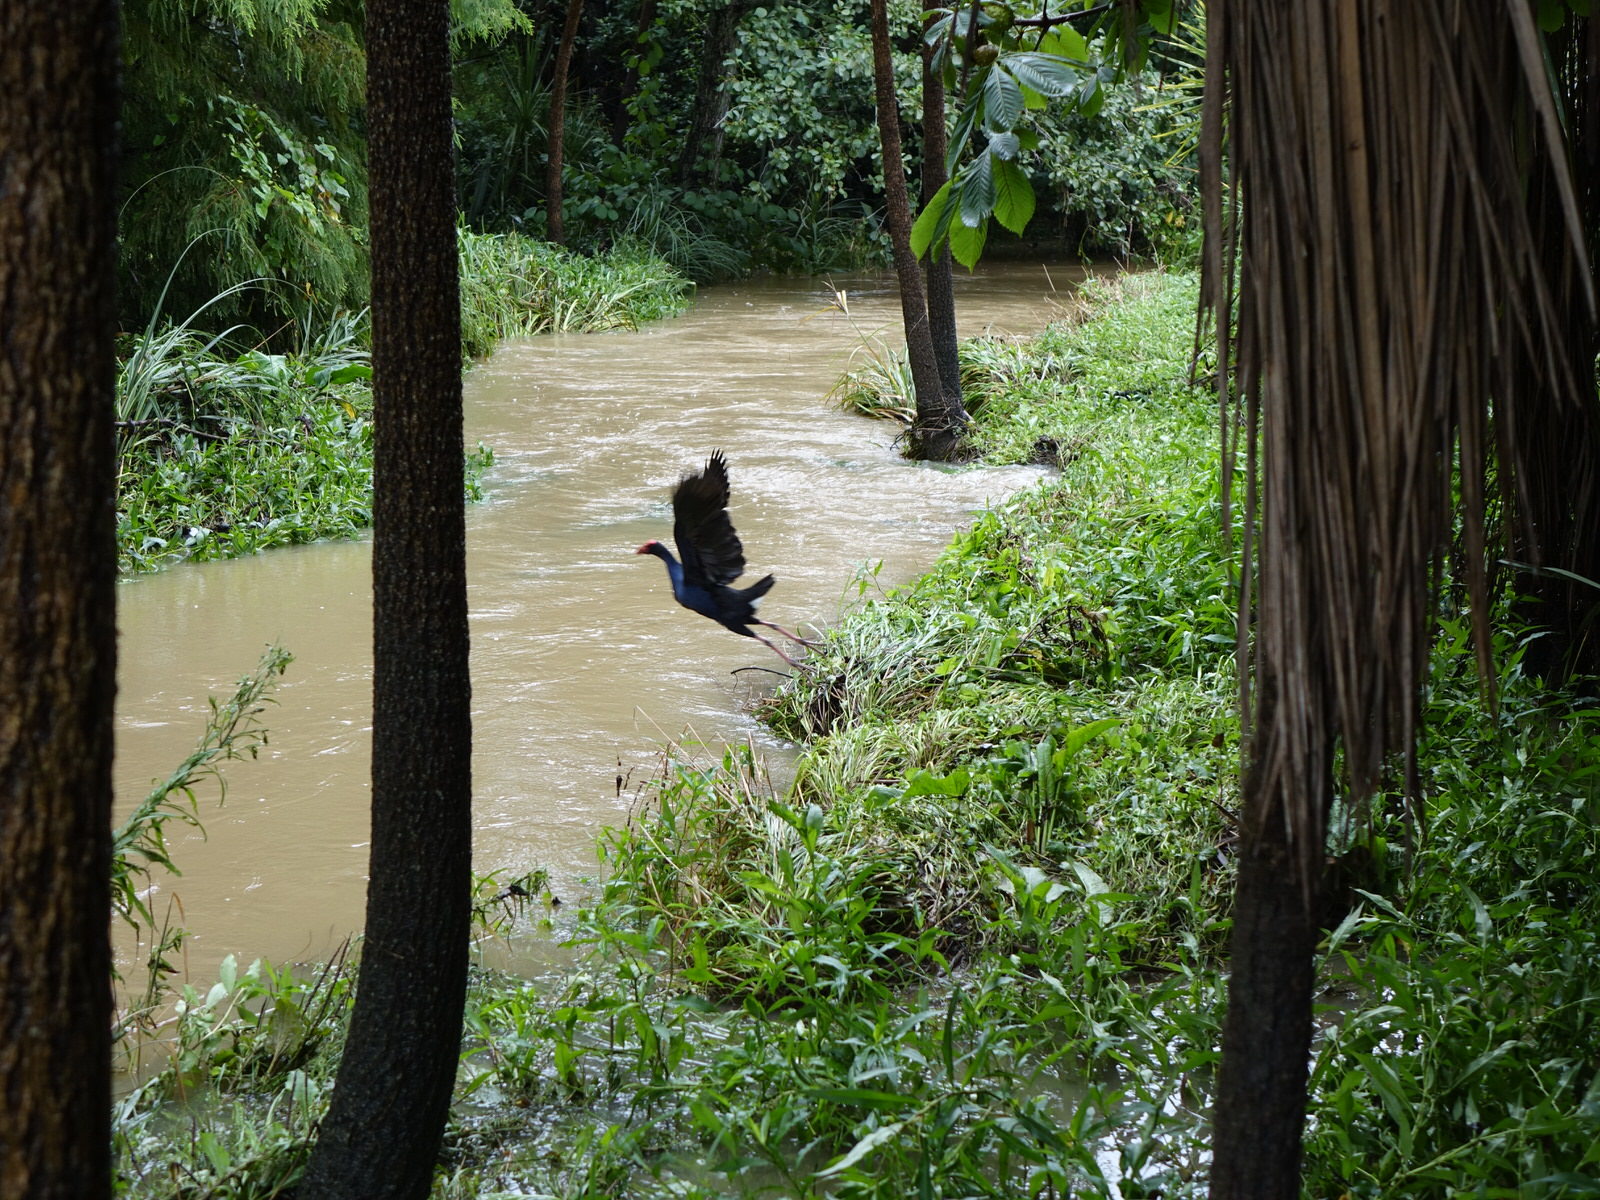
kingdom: Animalia
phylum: Chordata
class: Aves
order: Gruiformes
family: Rallidae
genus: Porphyrio
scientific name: Porphyrio melanotus
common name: Australasian swamphen
